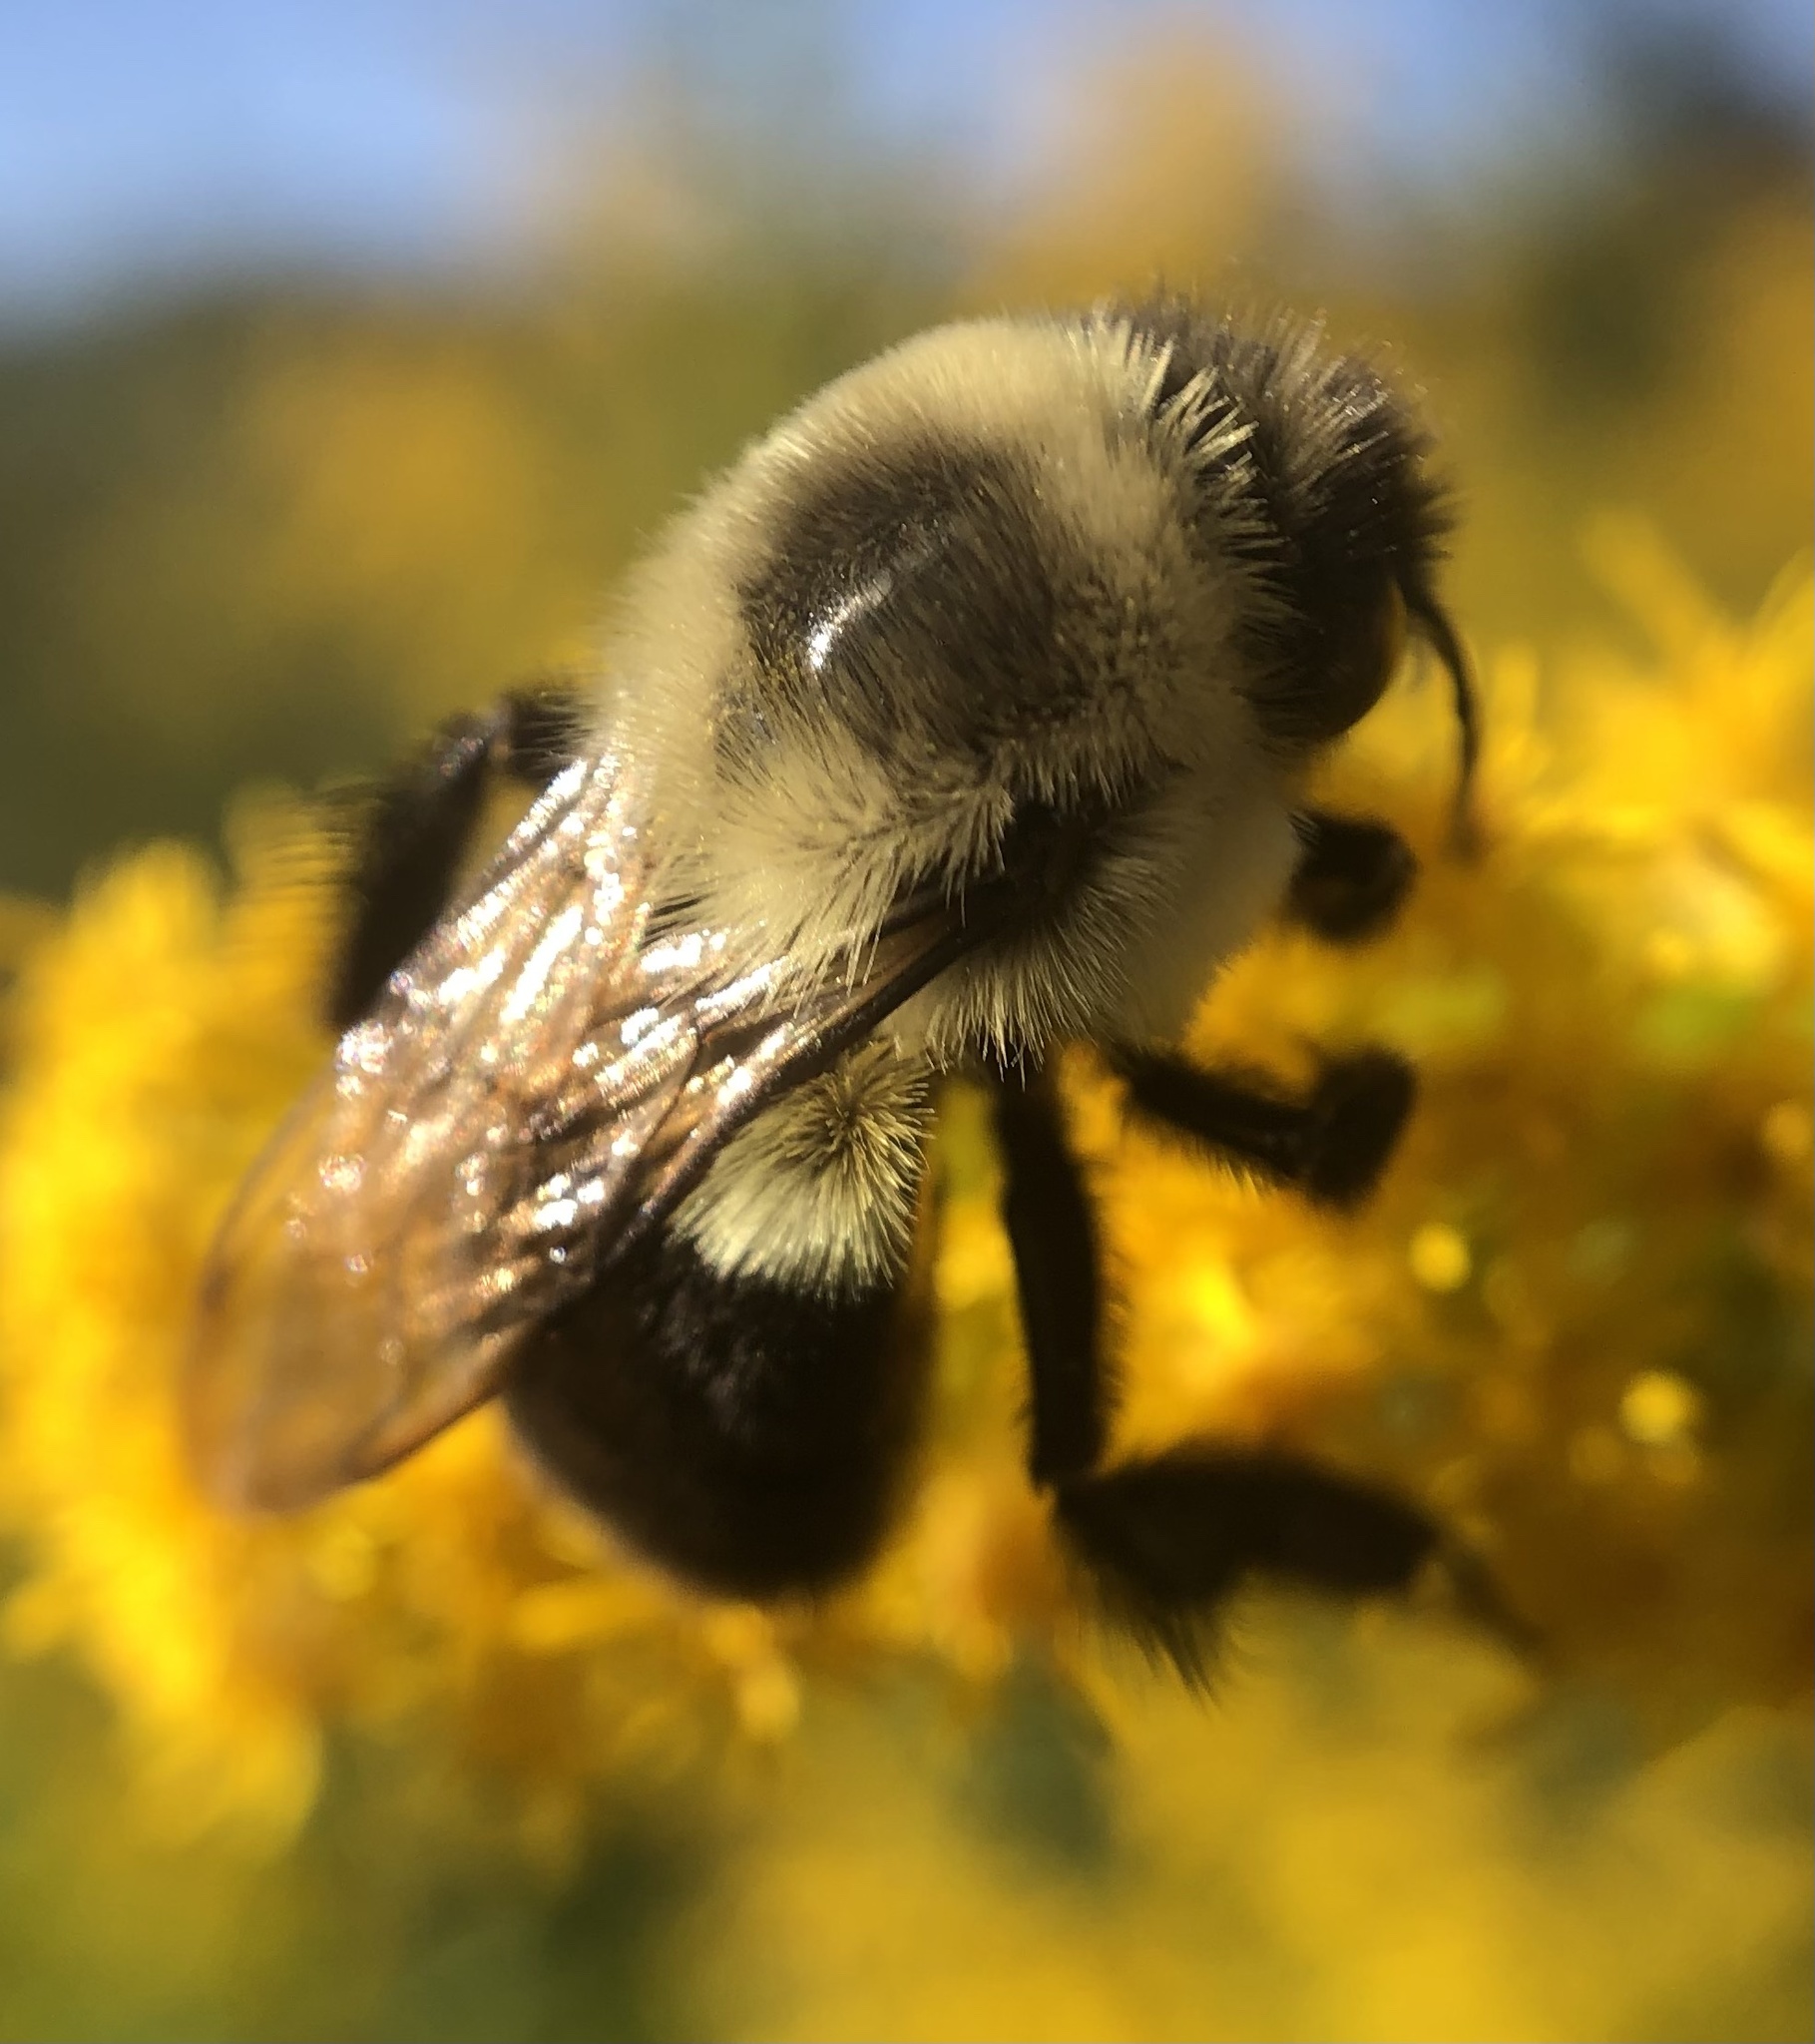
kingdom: Animalia
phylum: Arthropoda
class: Insecta
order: Hymenoptera
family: Apidae
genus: Bombus
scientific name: Bombus impatiens
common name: Common eastern bumble bee
